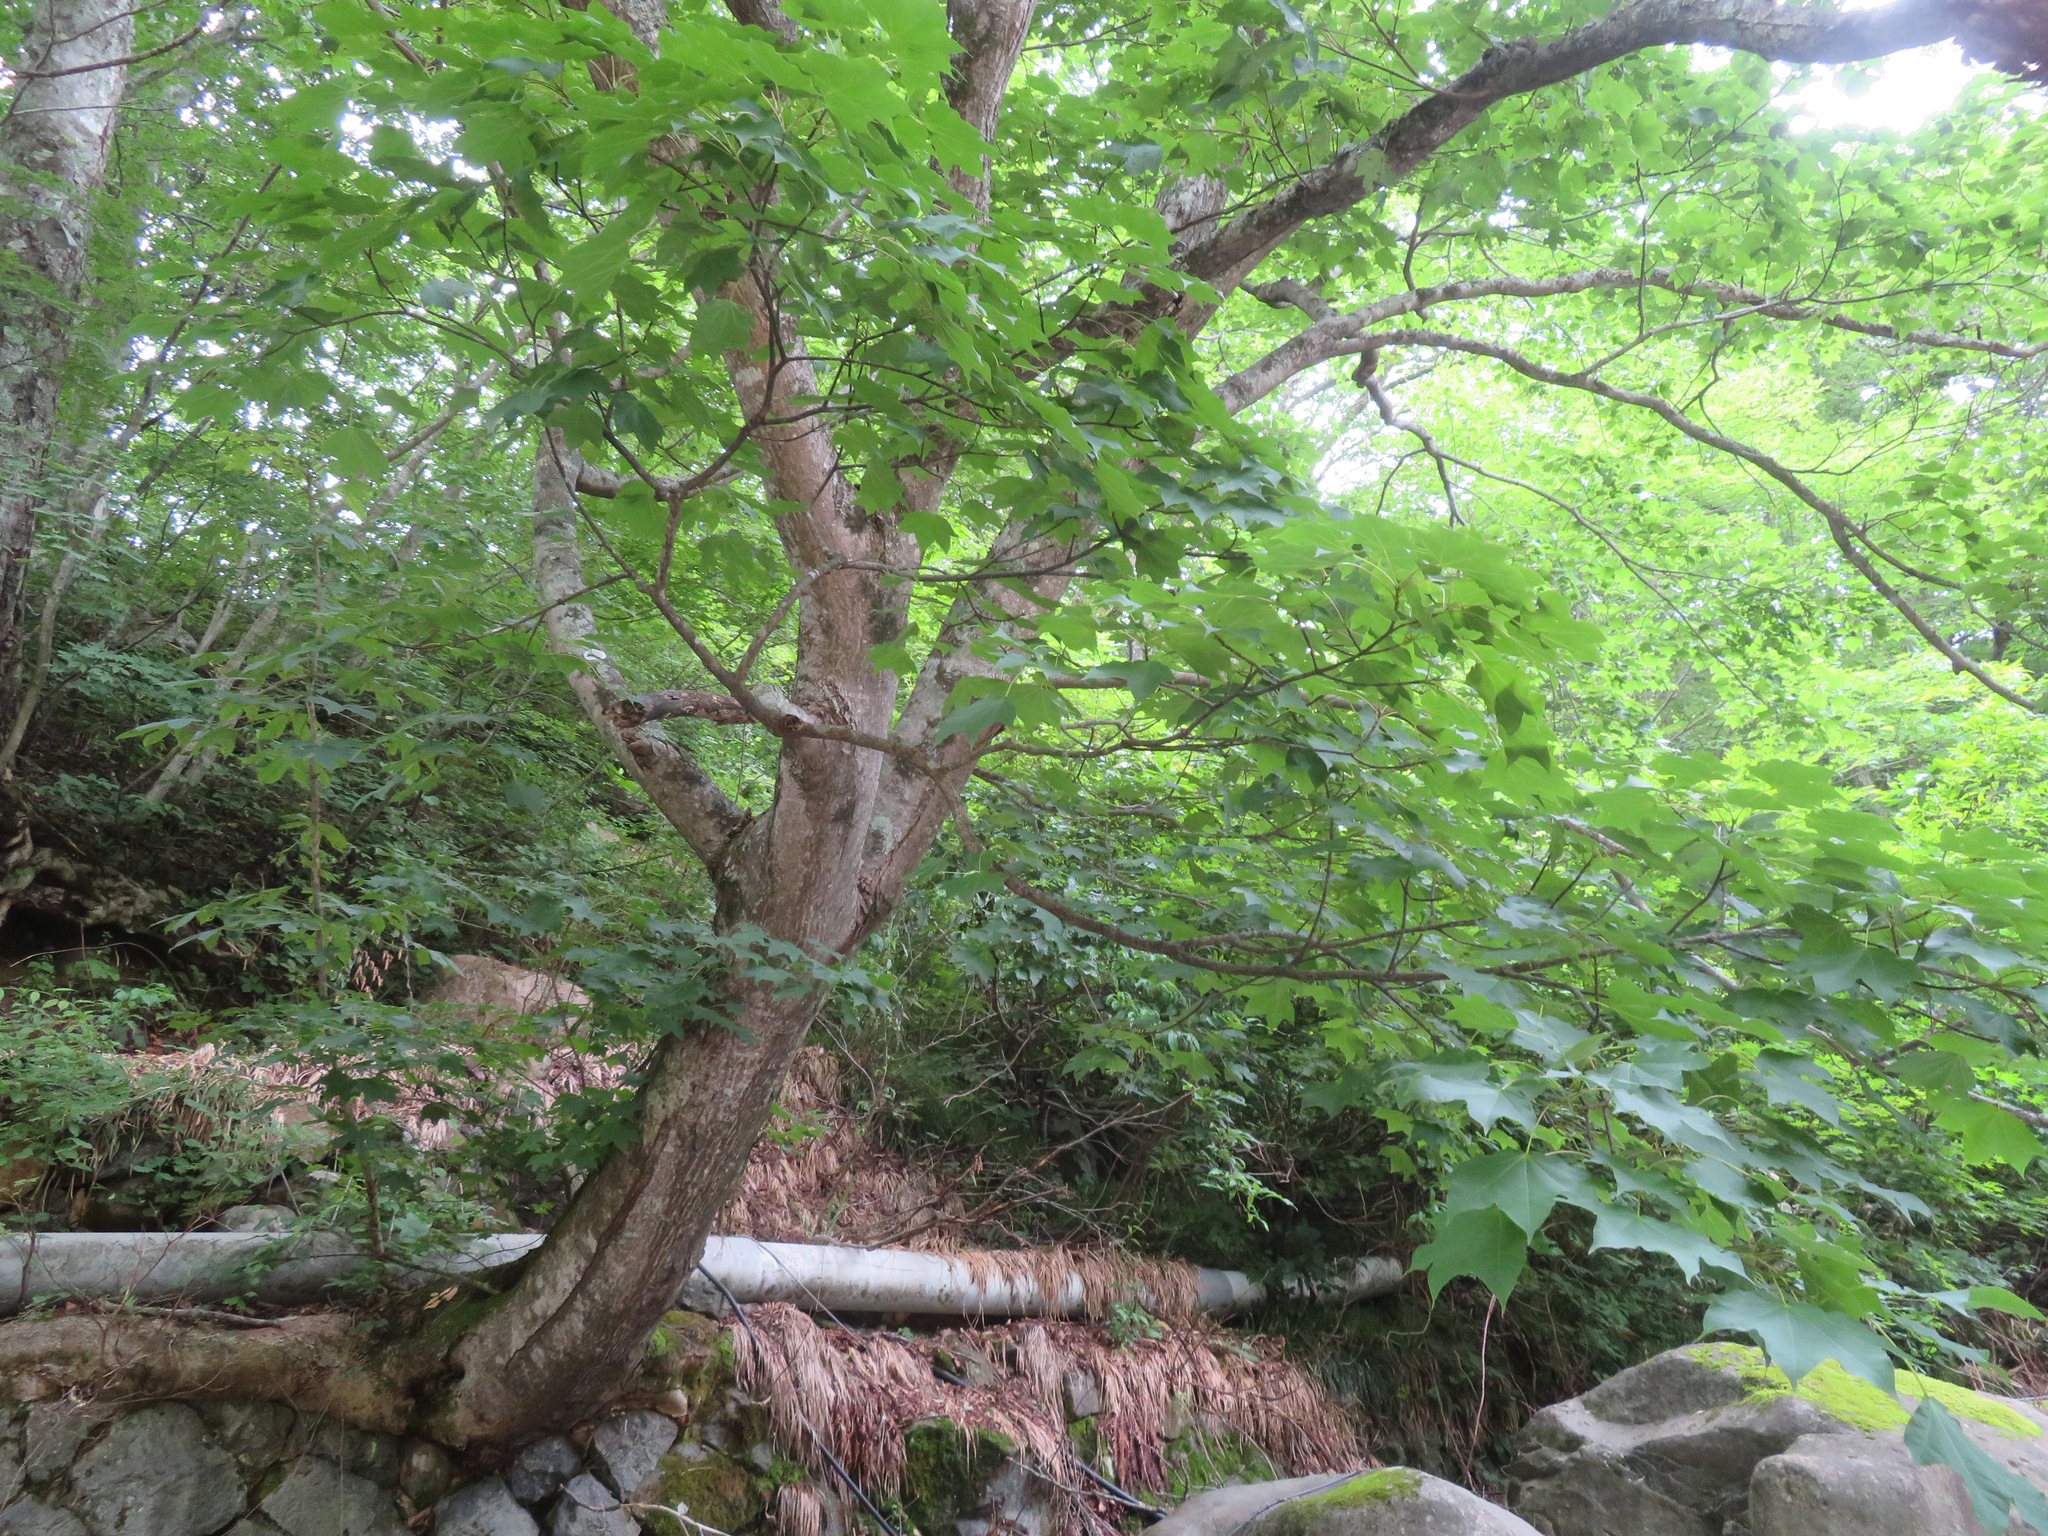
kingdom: Plantae
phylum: Tracheophyta
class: Magnoliopsida
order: Sapindales
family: Sapindaceae
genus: Acer
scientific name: Acer pictum
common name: The painted maple
